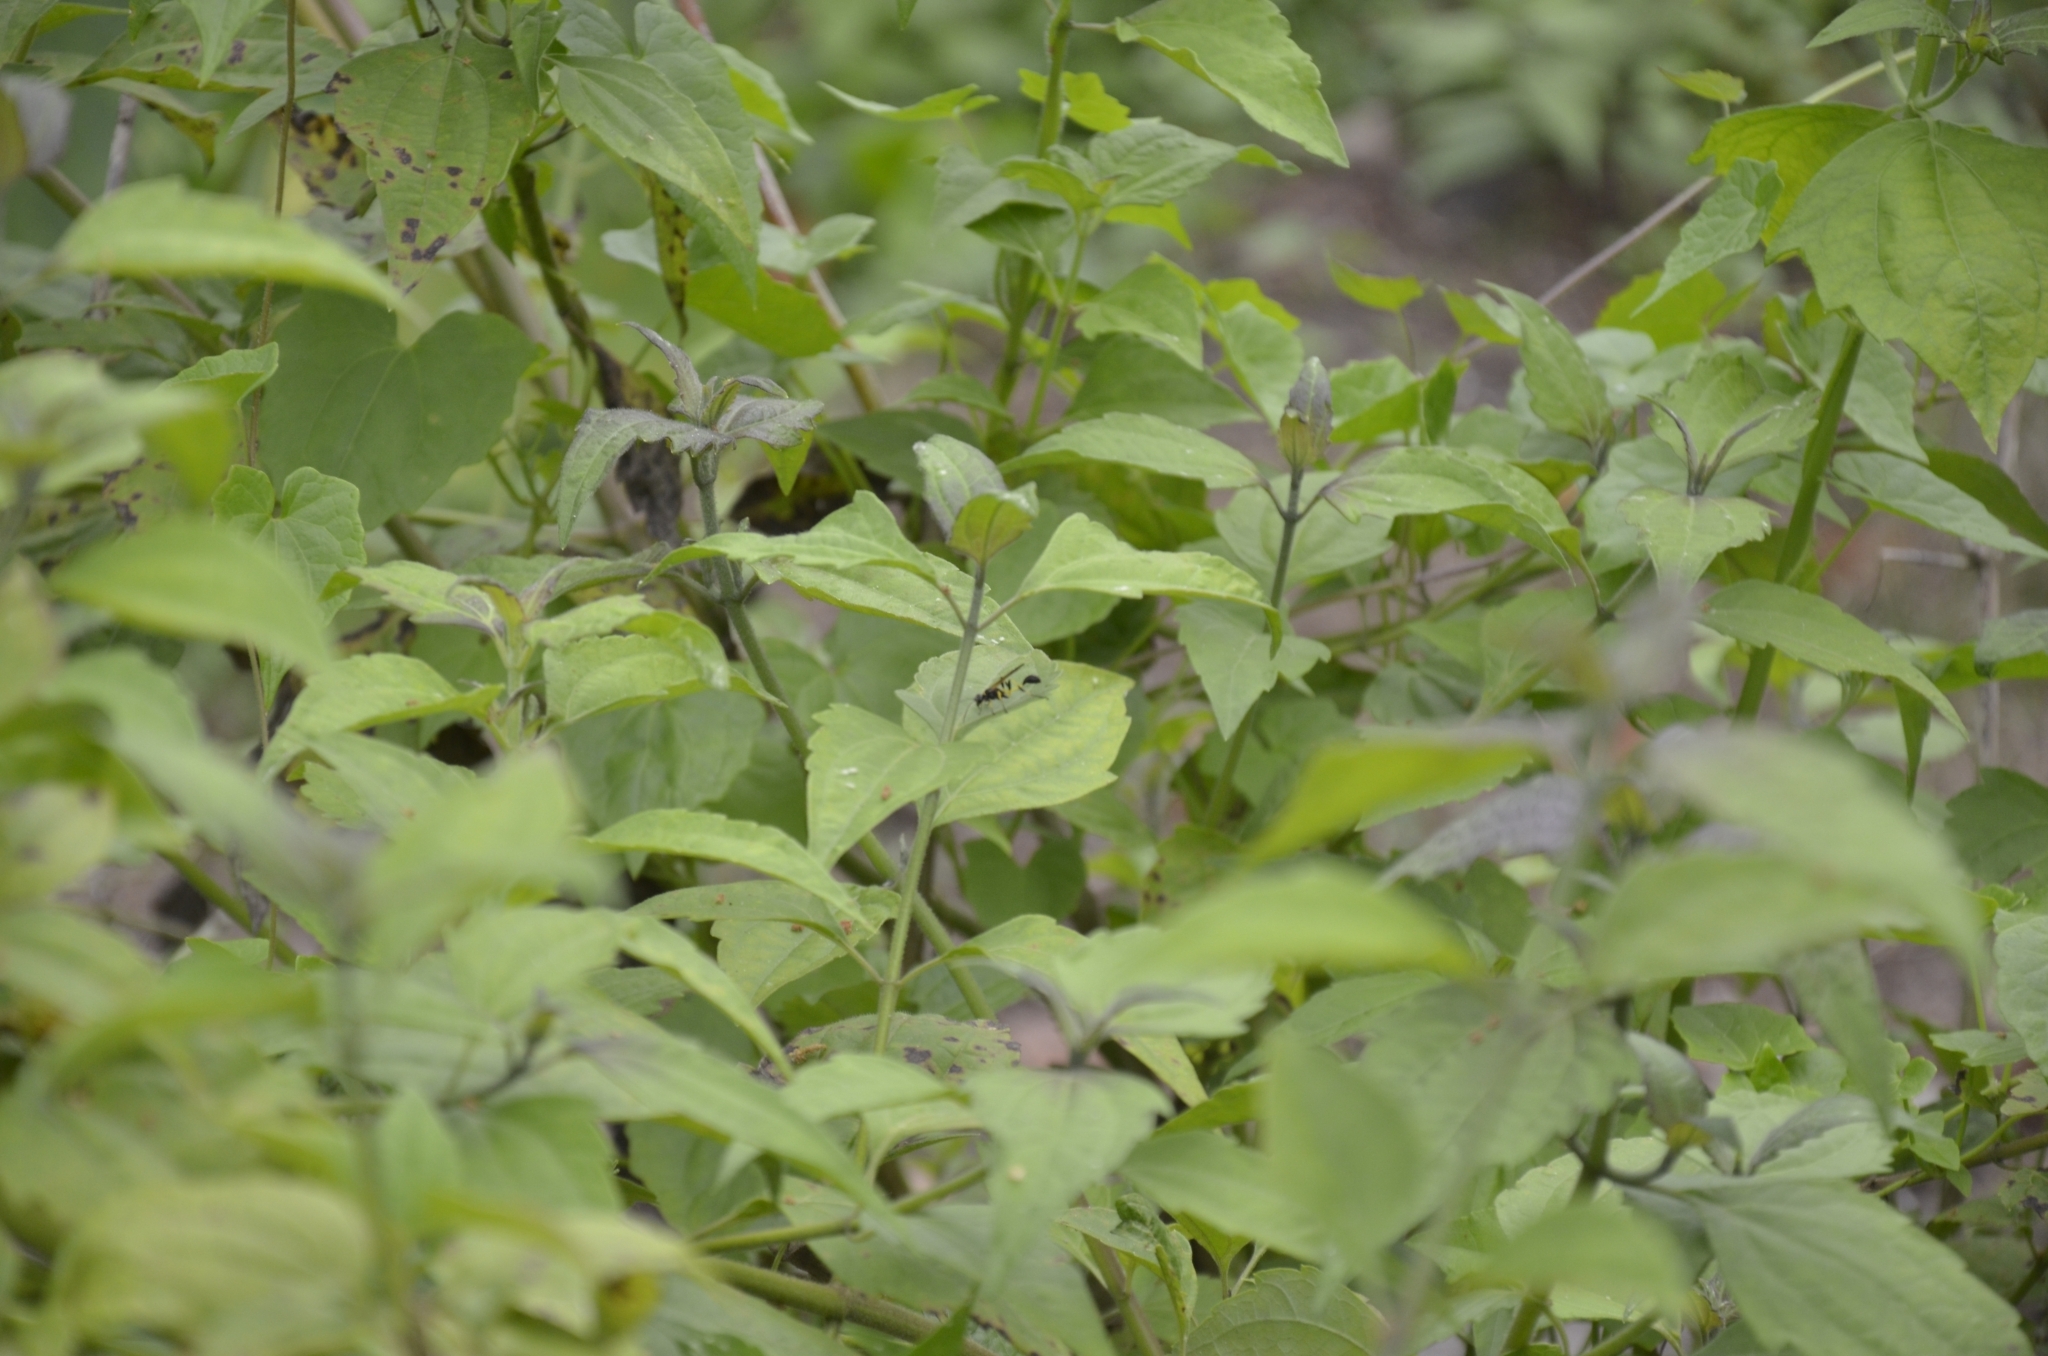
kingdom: Plantae
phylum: Tracheophyta
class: Magnoliopsida
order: Asterales
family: Asteraceae
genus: Chromolaena
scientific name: Chromolaena odorata
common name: Siamweed
